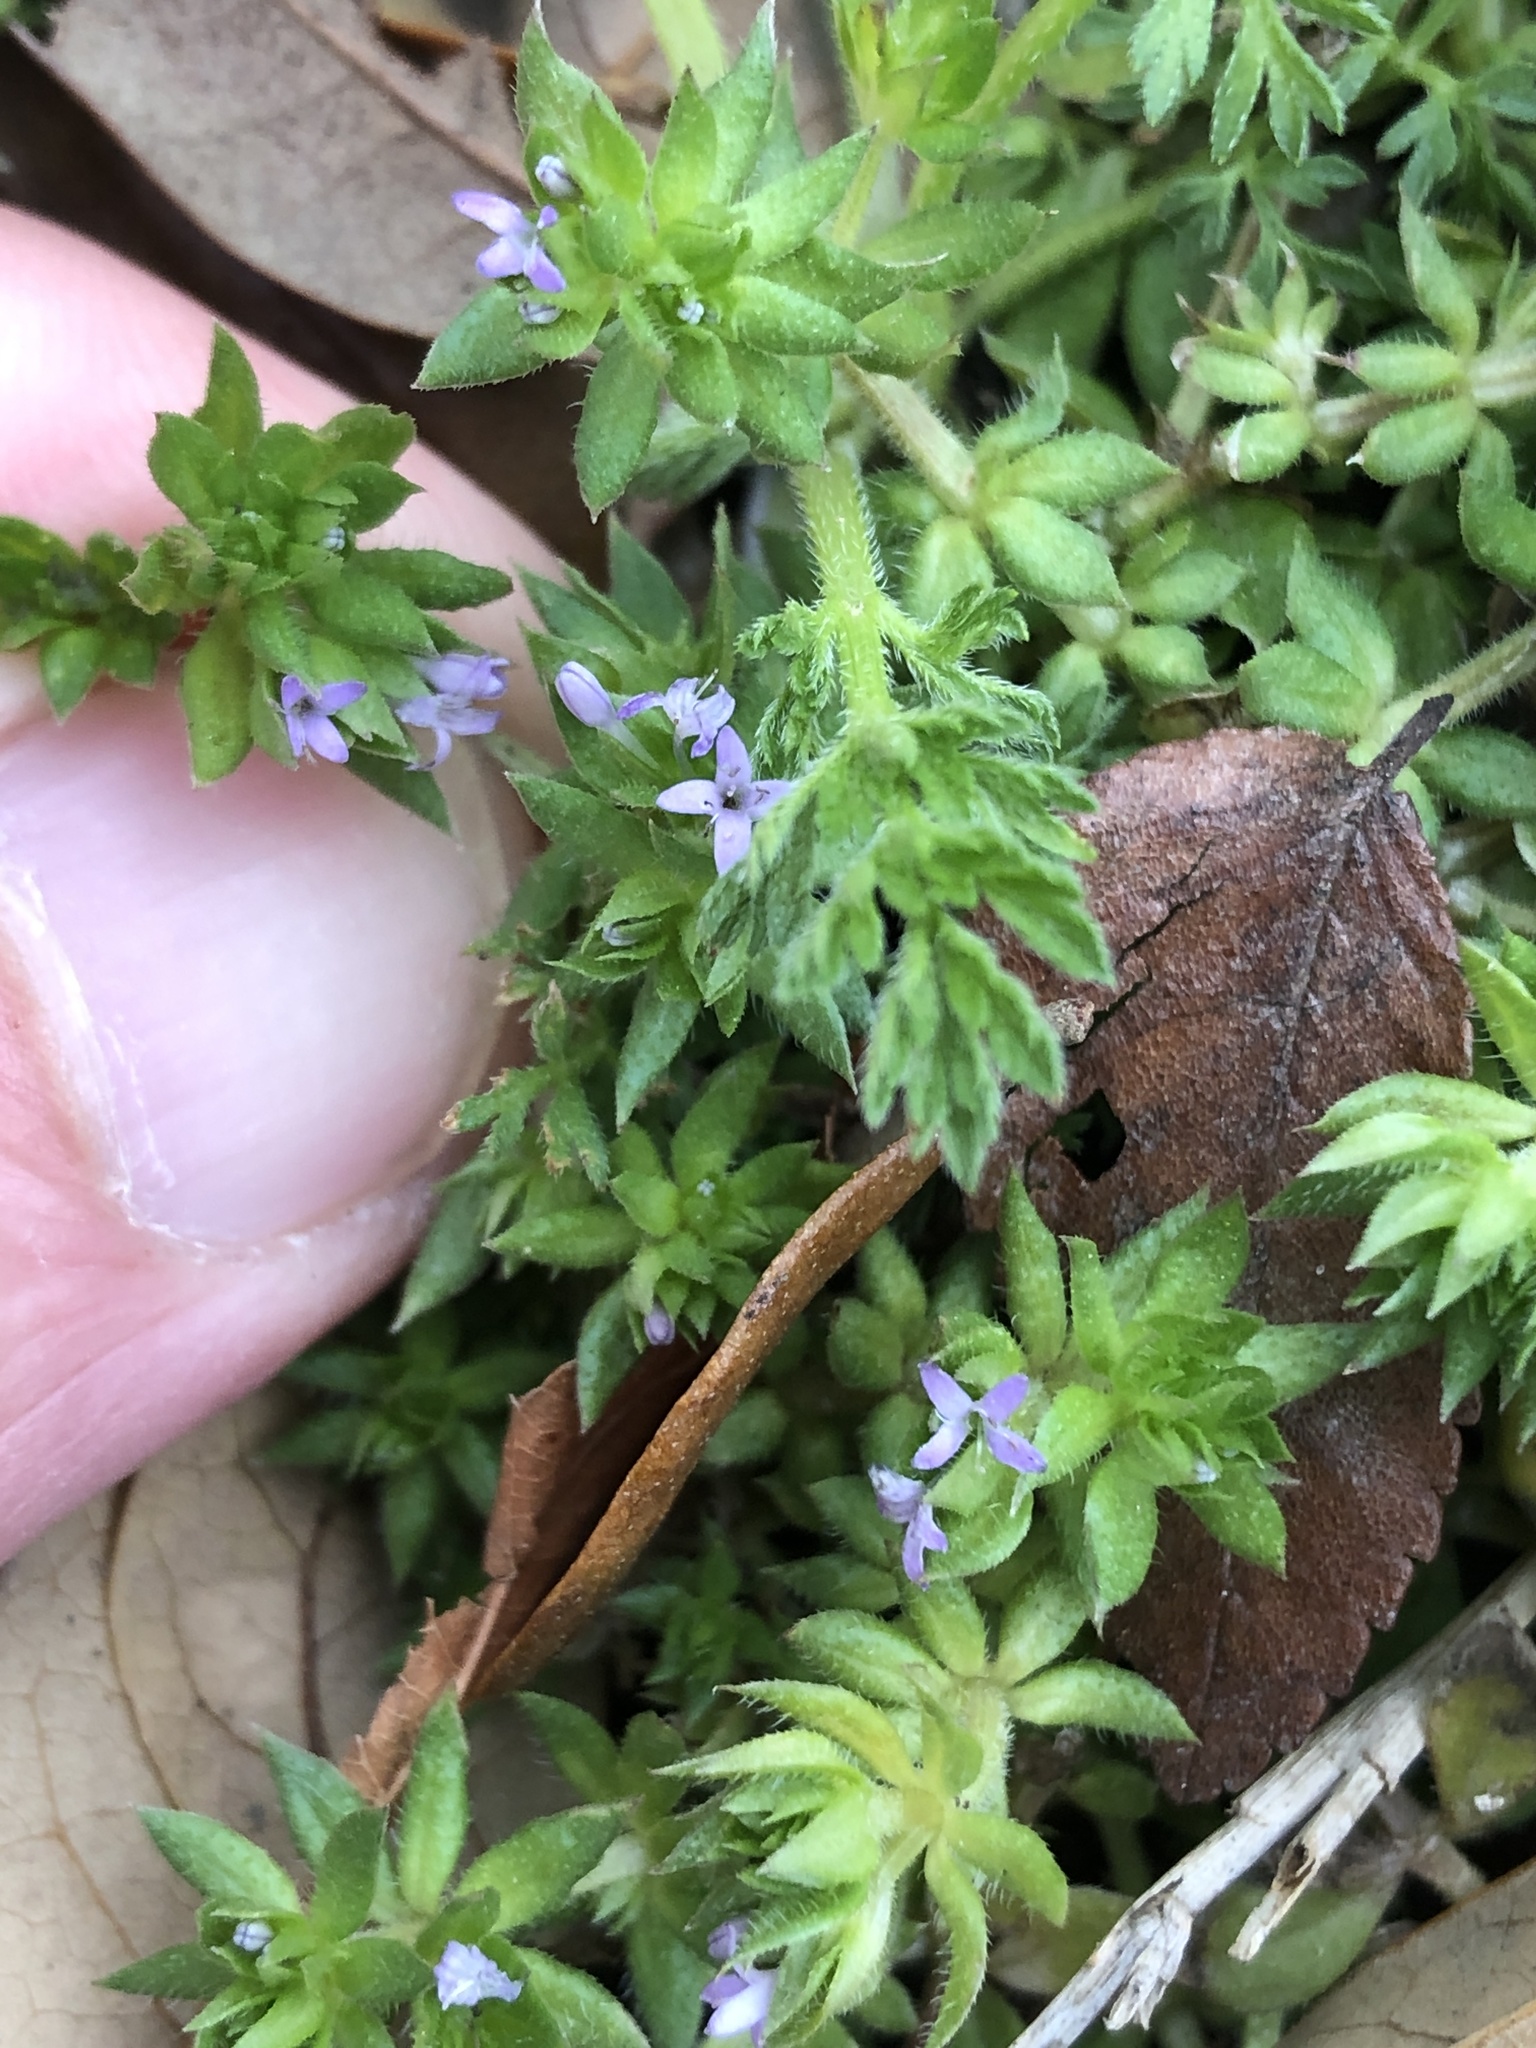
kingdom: Plantae
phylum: Tracheophyta
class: Magnoliopsida
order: Gentianales
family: Rubiaceae
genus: Sherardia
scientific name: Sherardia arvensis
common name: Field madder
